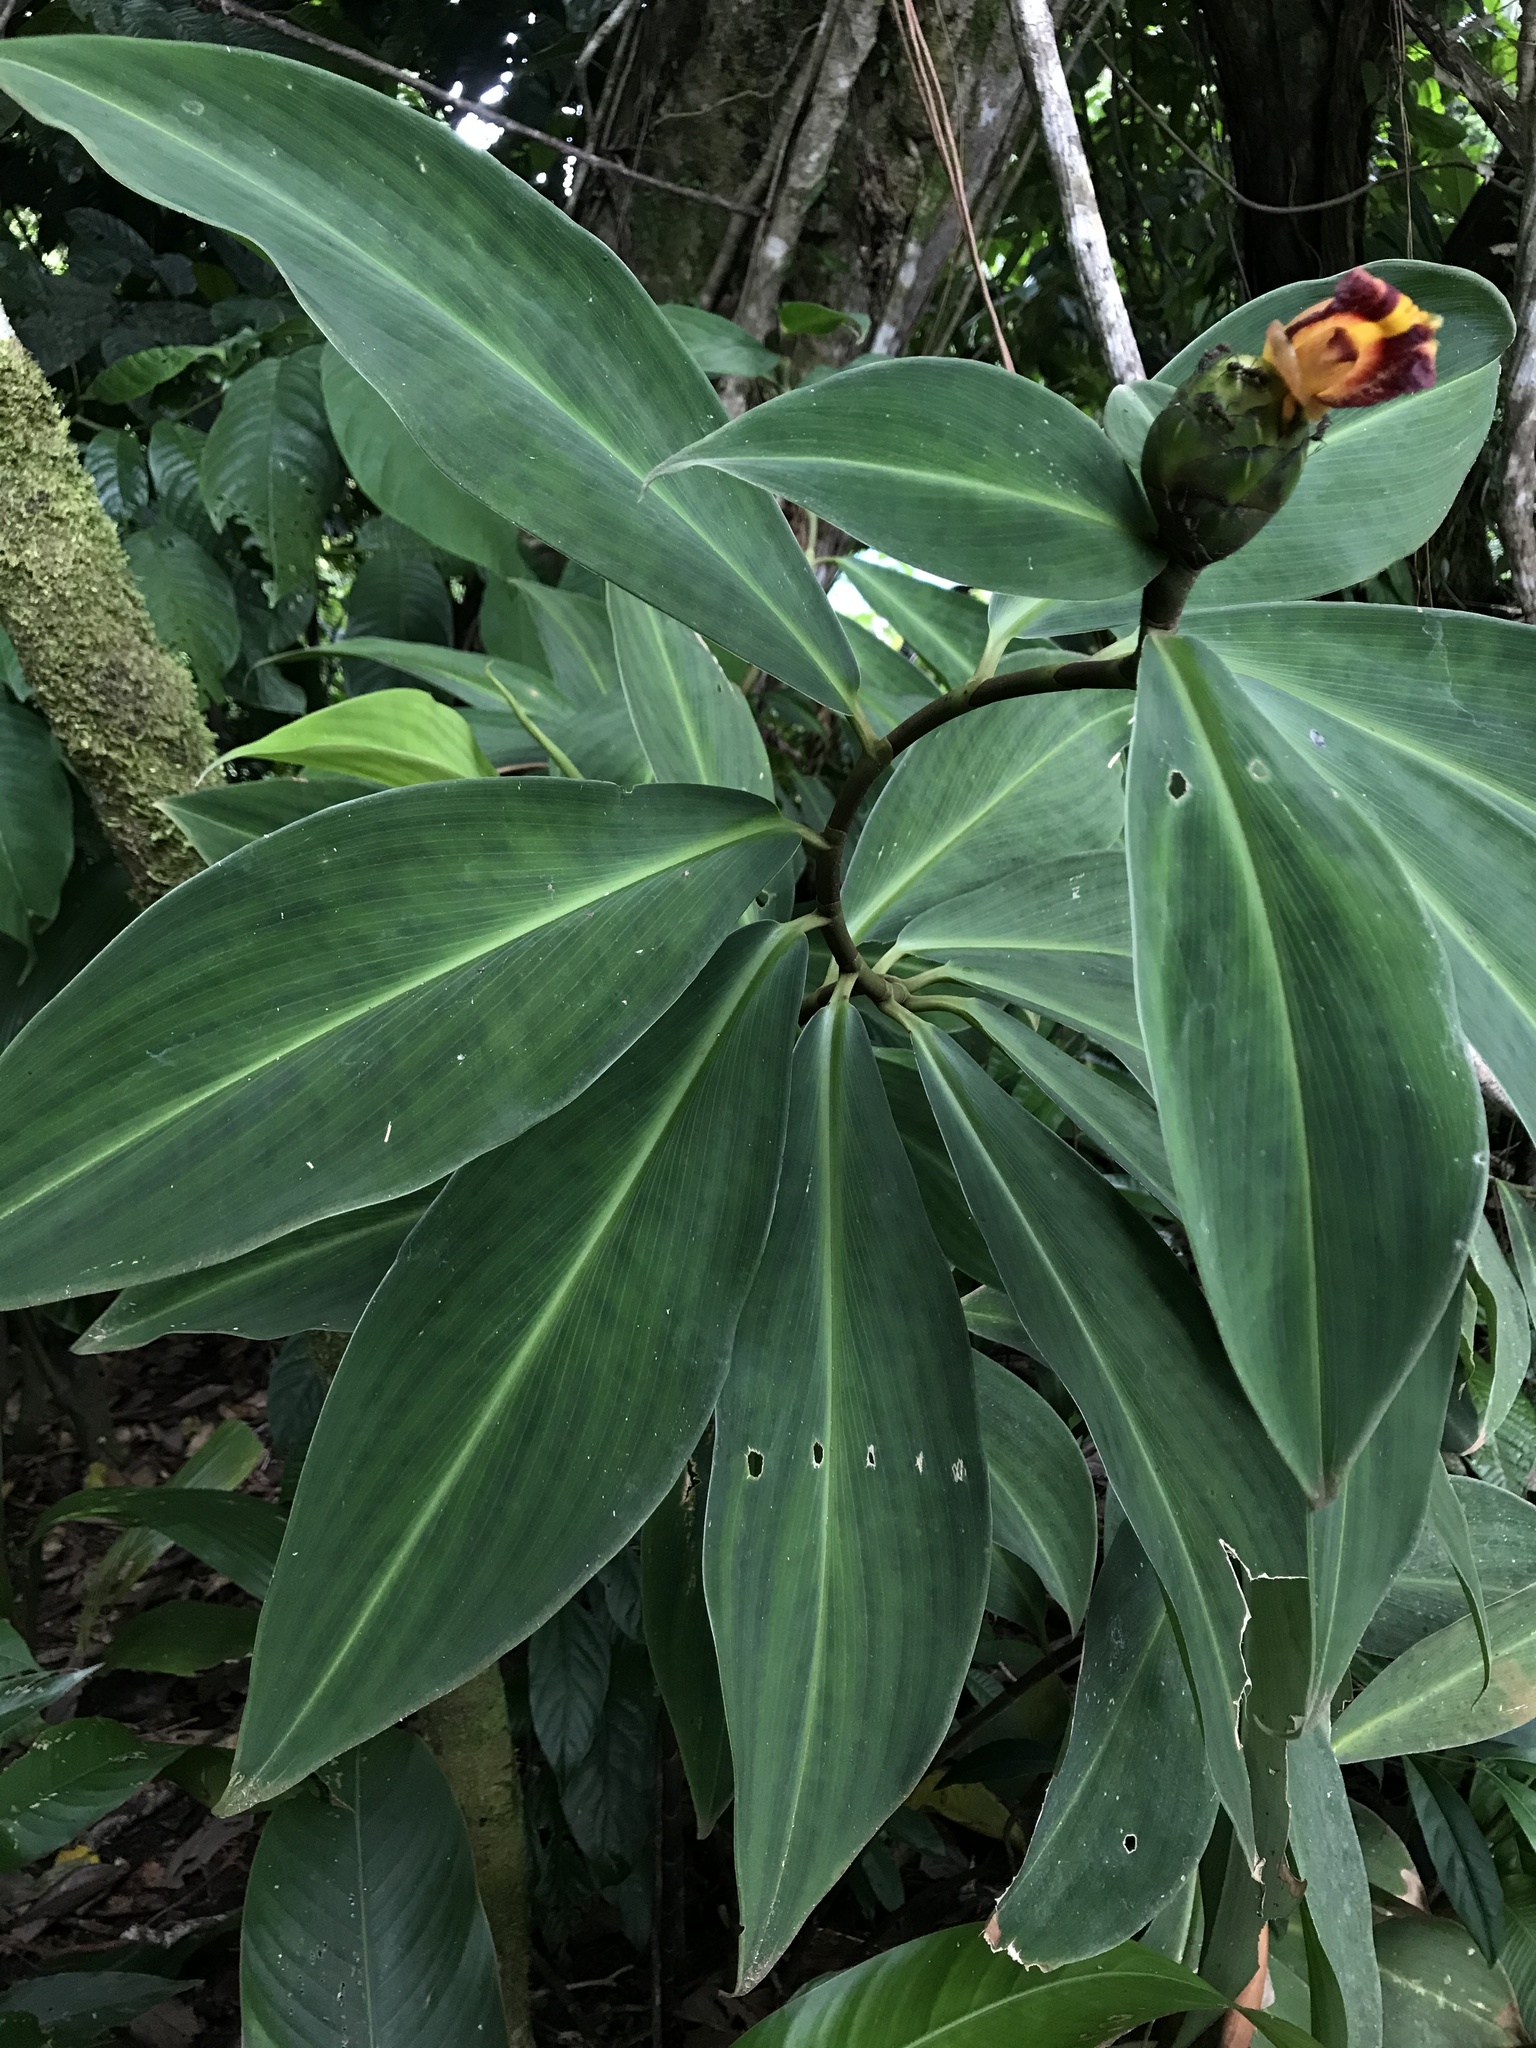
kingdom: Plantae
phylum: Tracheophyta
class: Liliopsida
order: Zingiberales
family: Costaceae
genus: Costus
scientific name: Costus laevis
